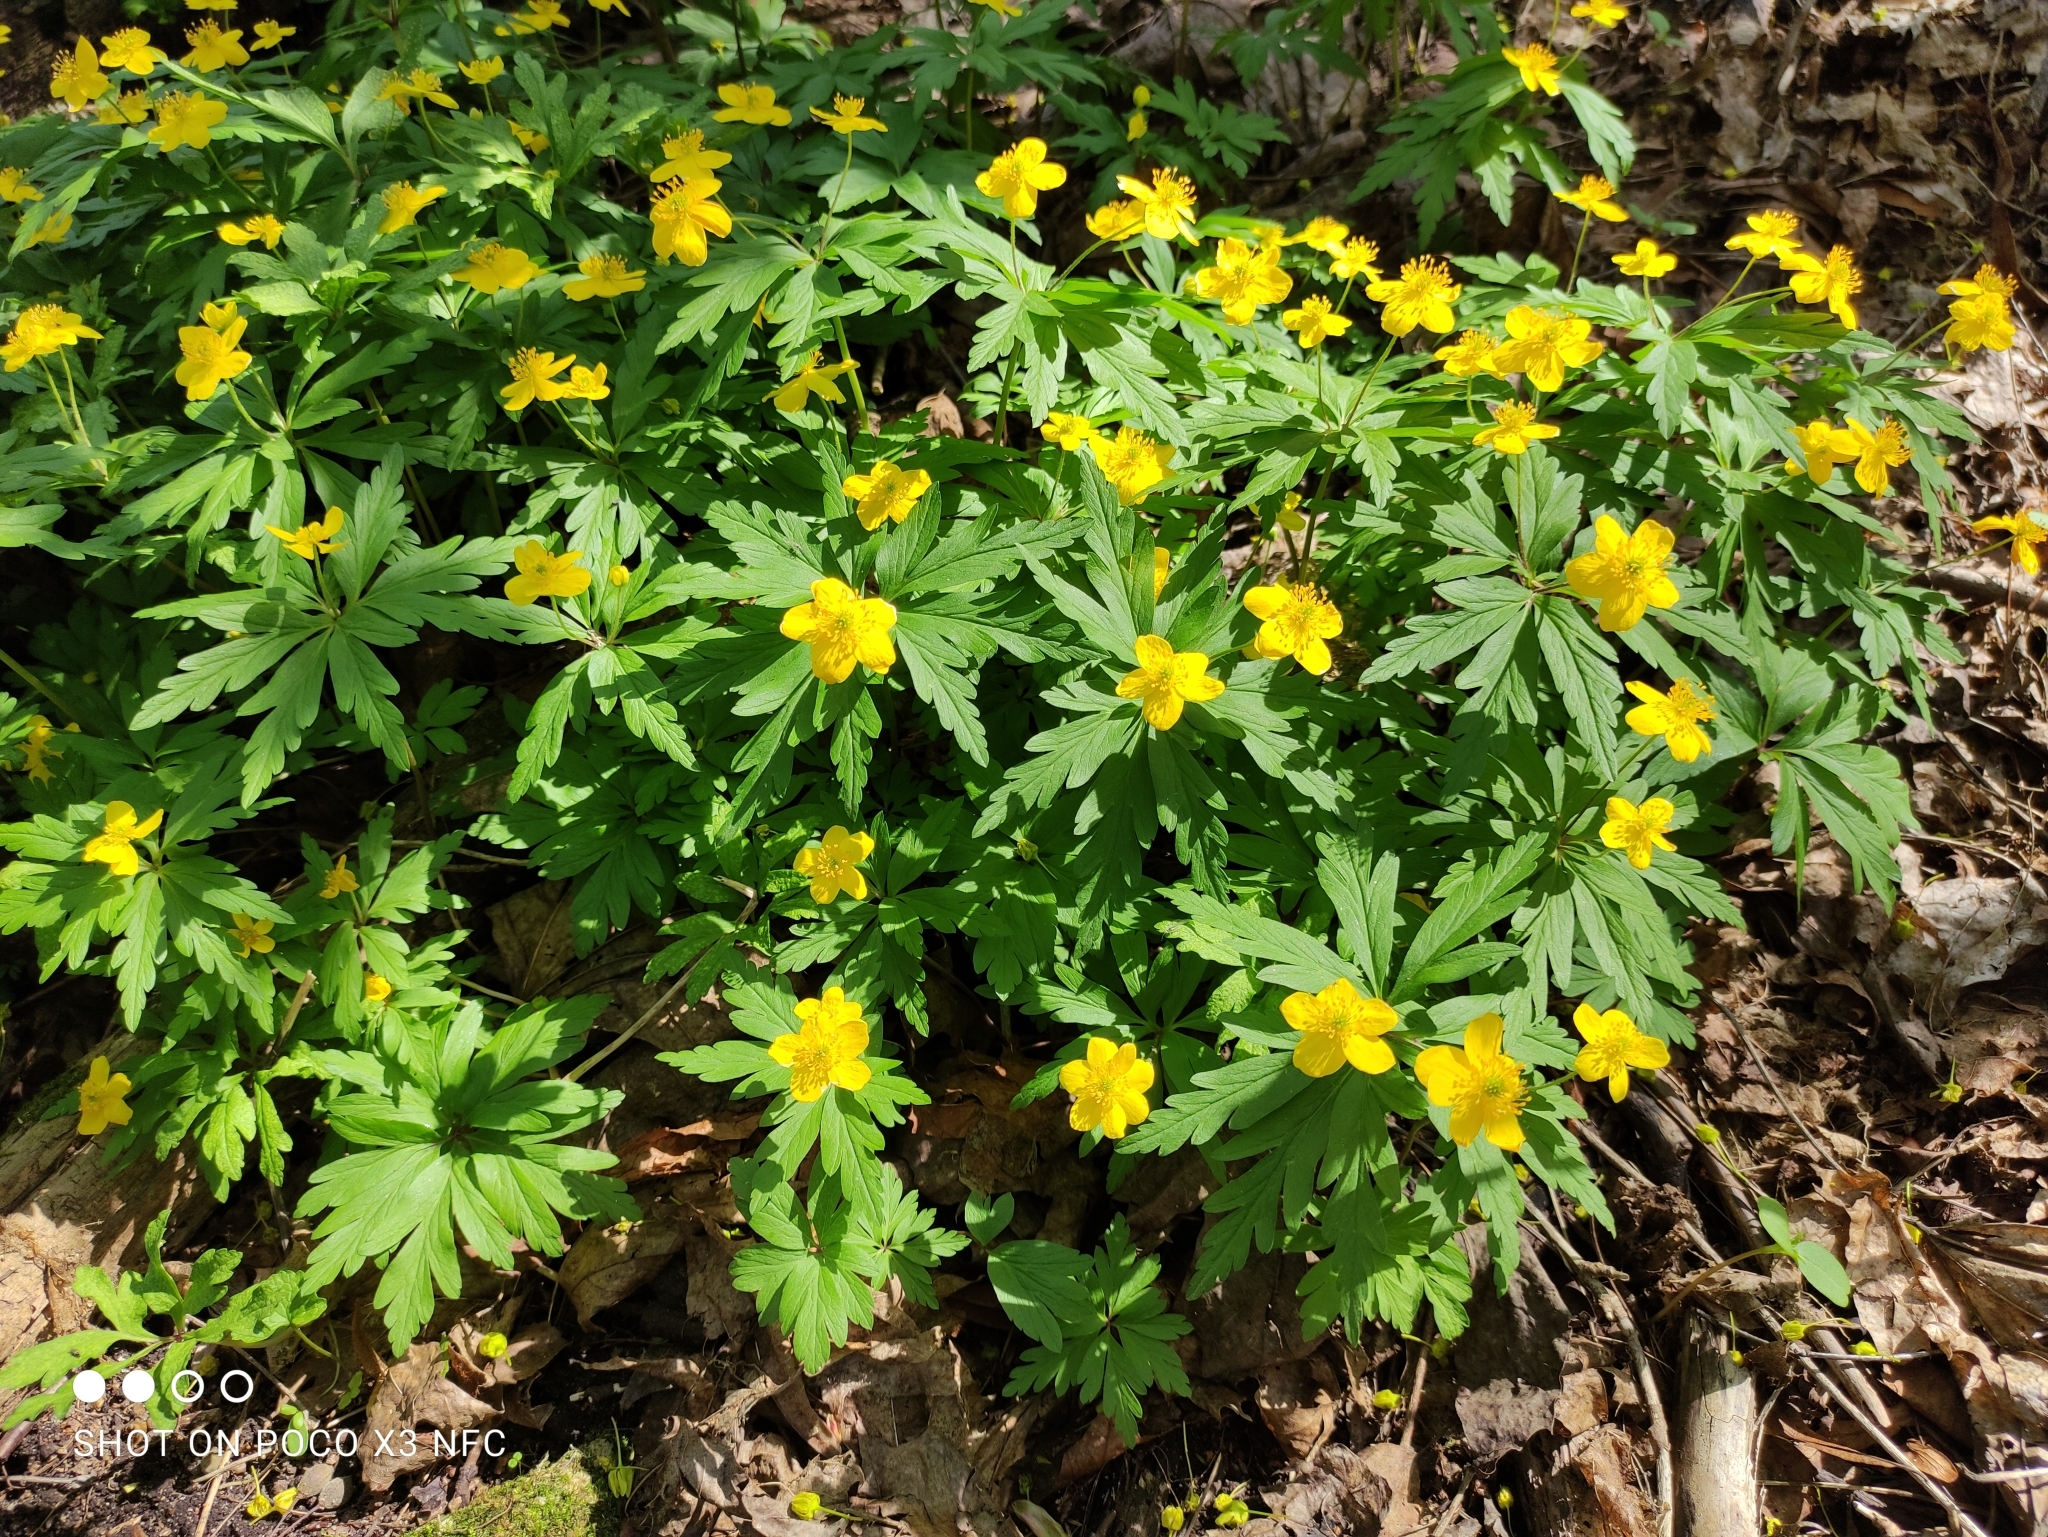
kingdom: Plantae
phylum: Tracheophyta
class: Magnoliopsida
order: Ranunculales
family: Ranunculaceae
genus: Anemone
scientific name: Anemone ranunculoides
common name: Yellow anemone
